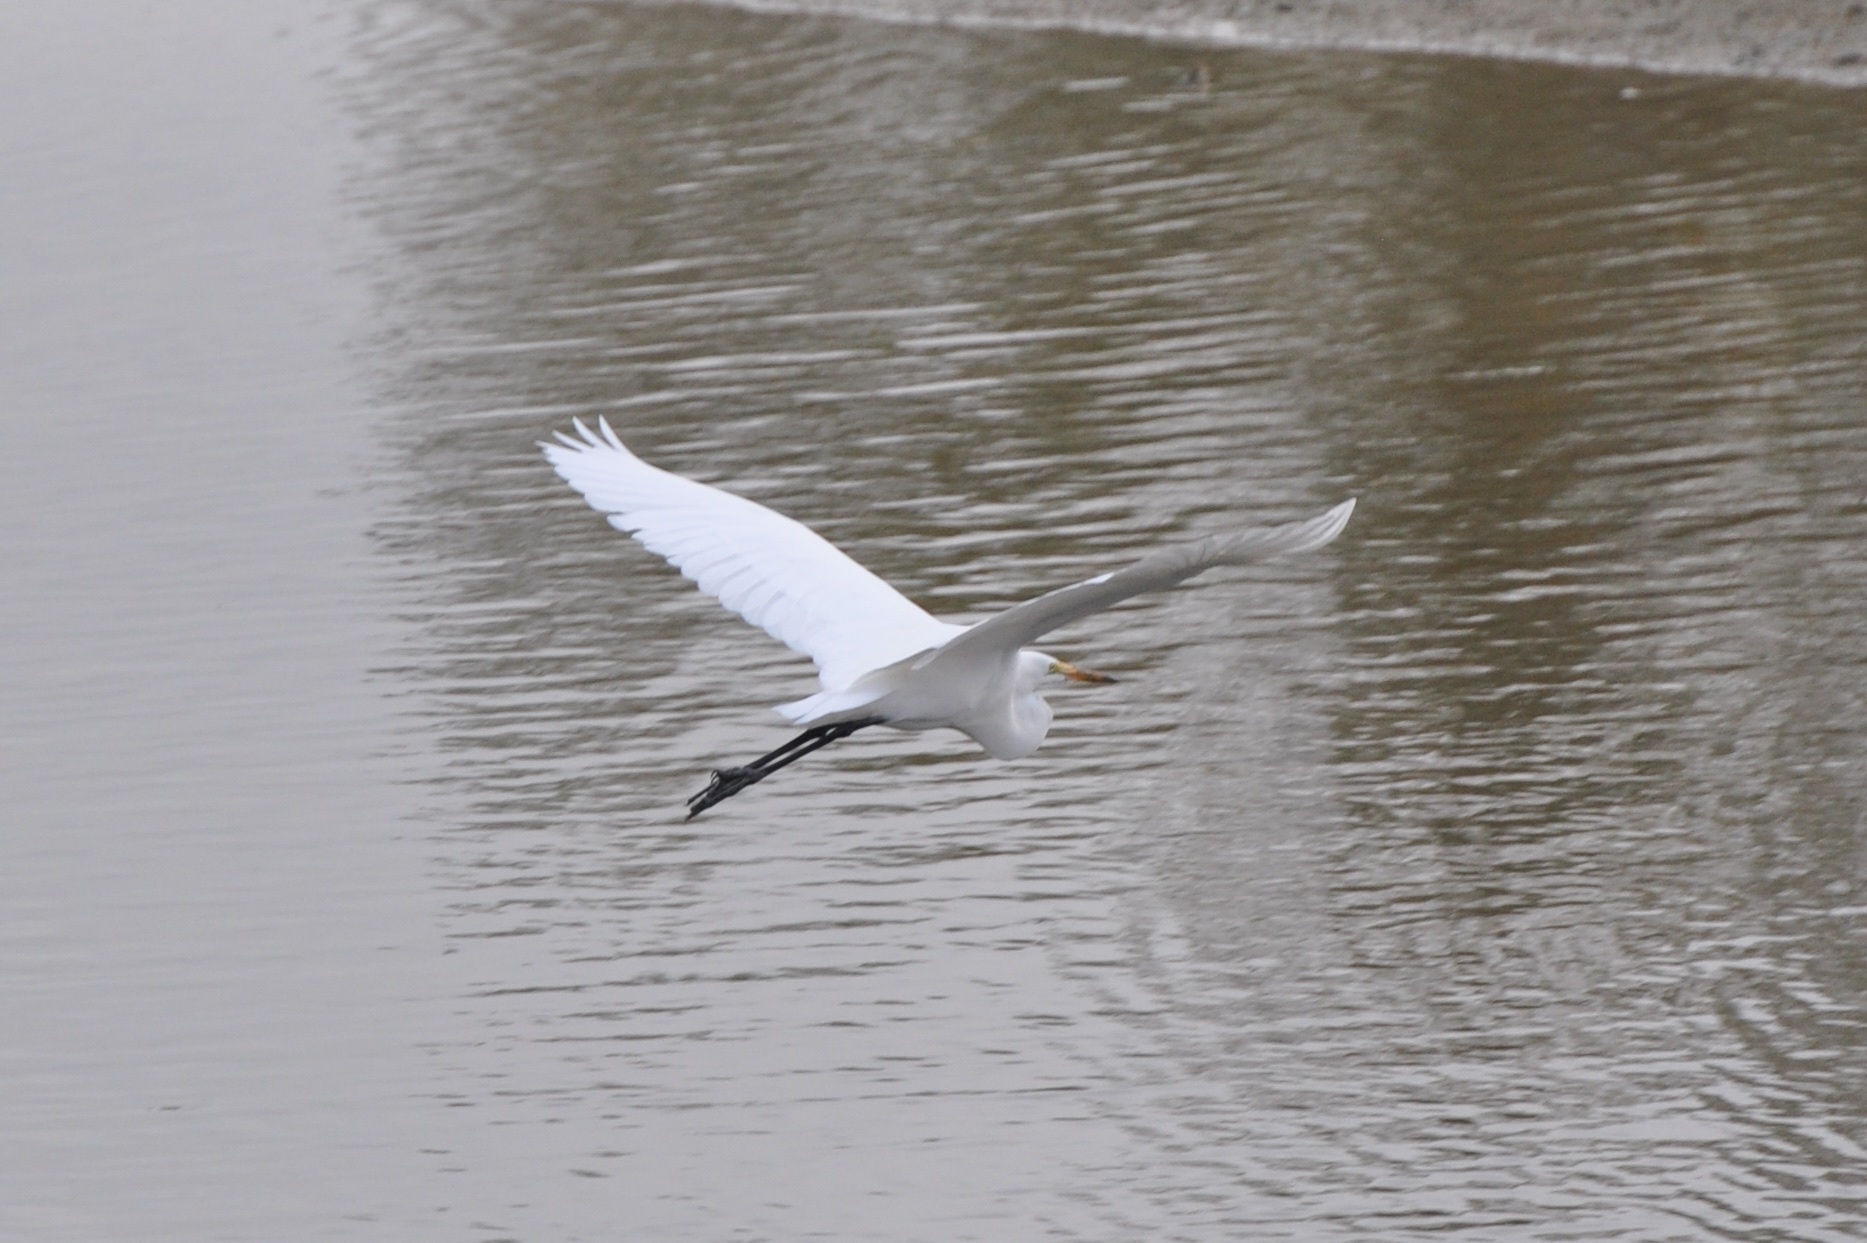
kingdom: Animalia
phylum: Chordata
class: Aves
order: Pelecaniformes
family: Ardeidae
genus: Ardea
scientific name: Ardea alba
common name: Great egret
